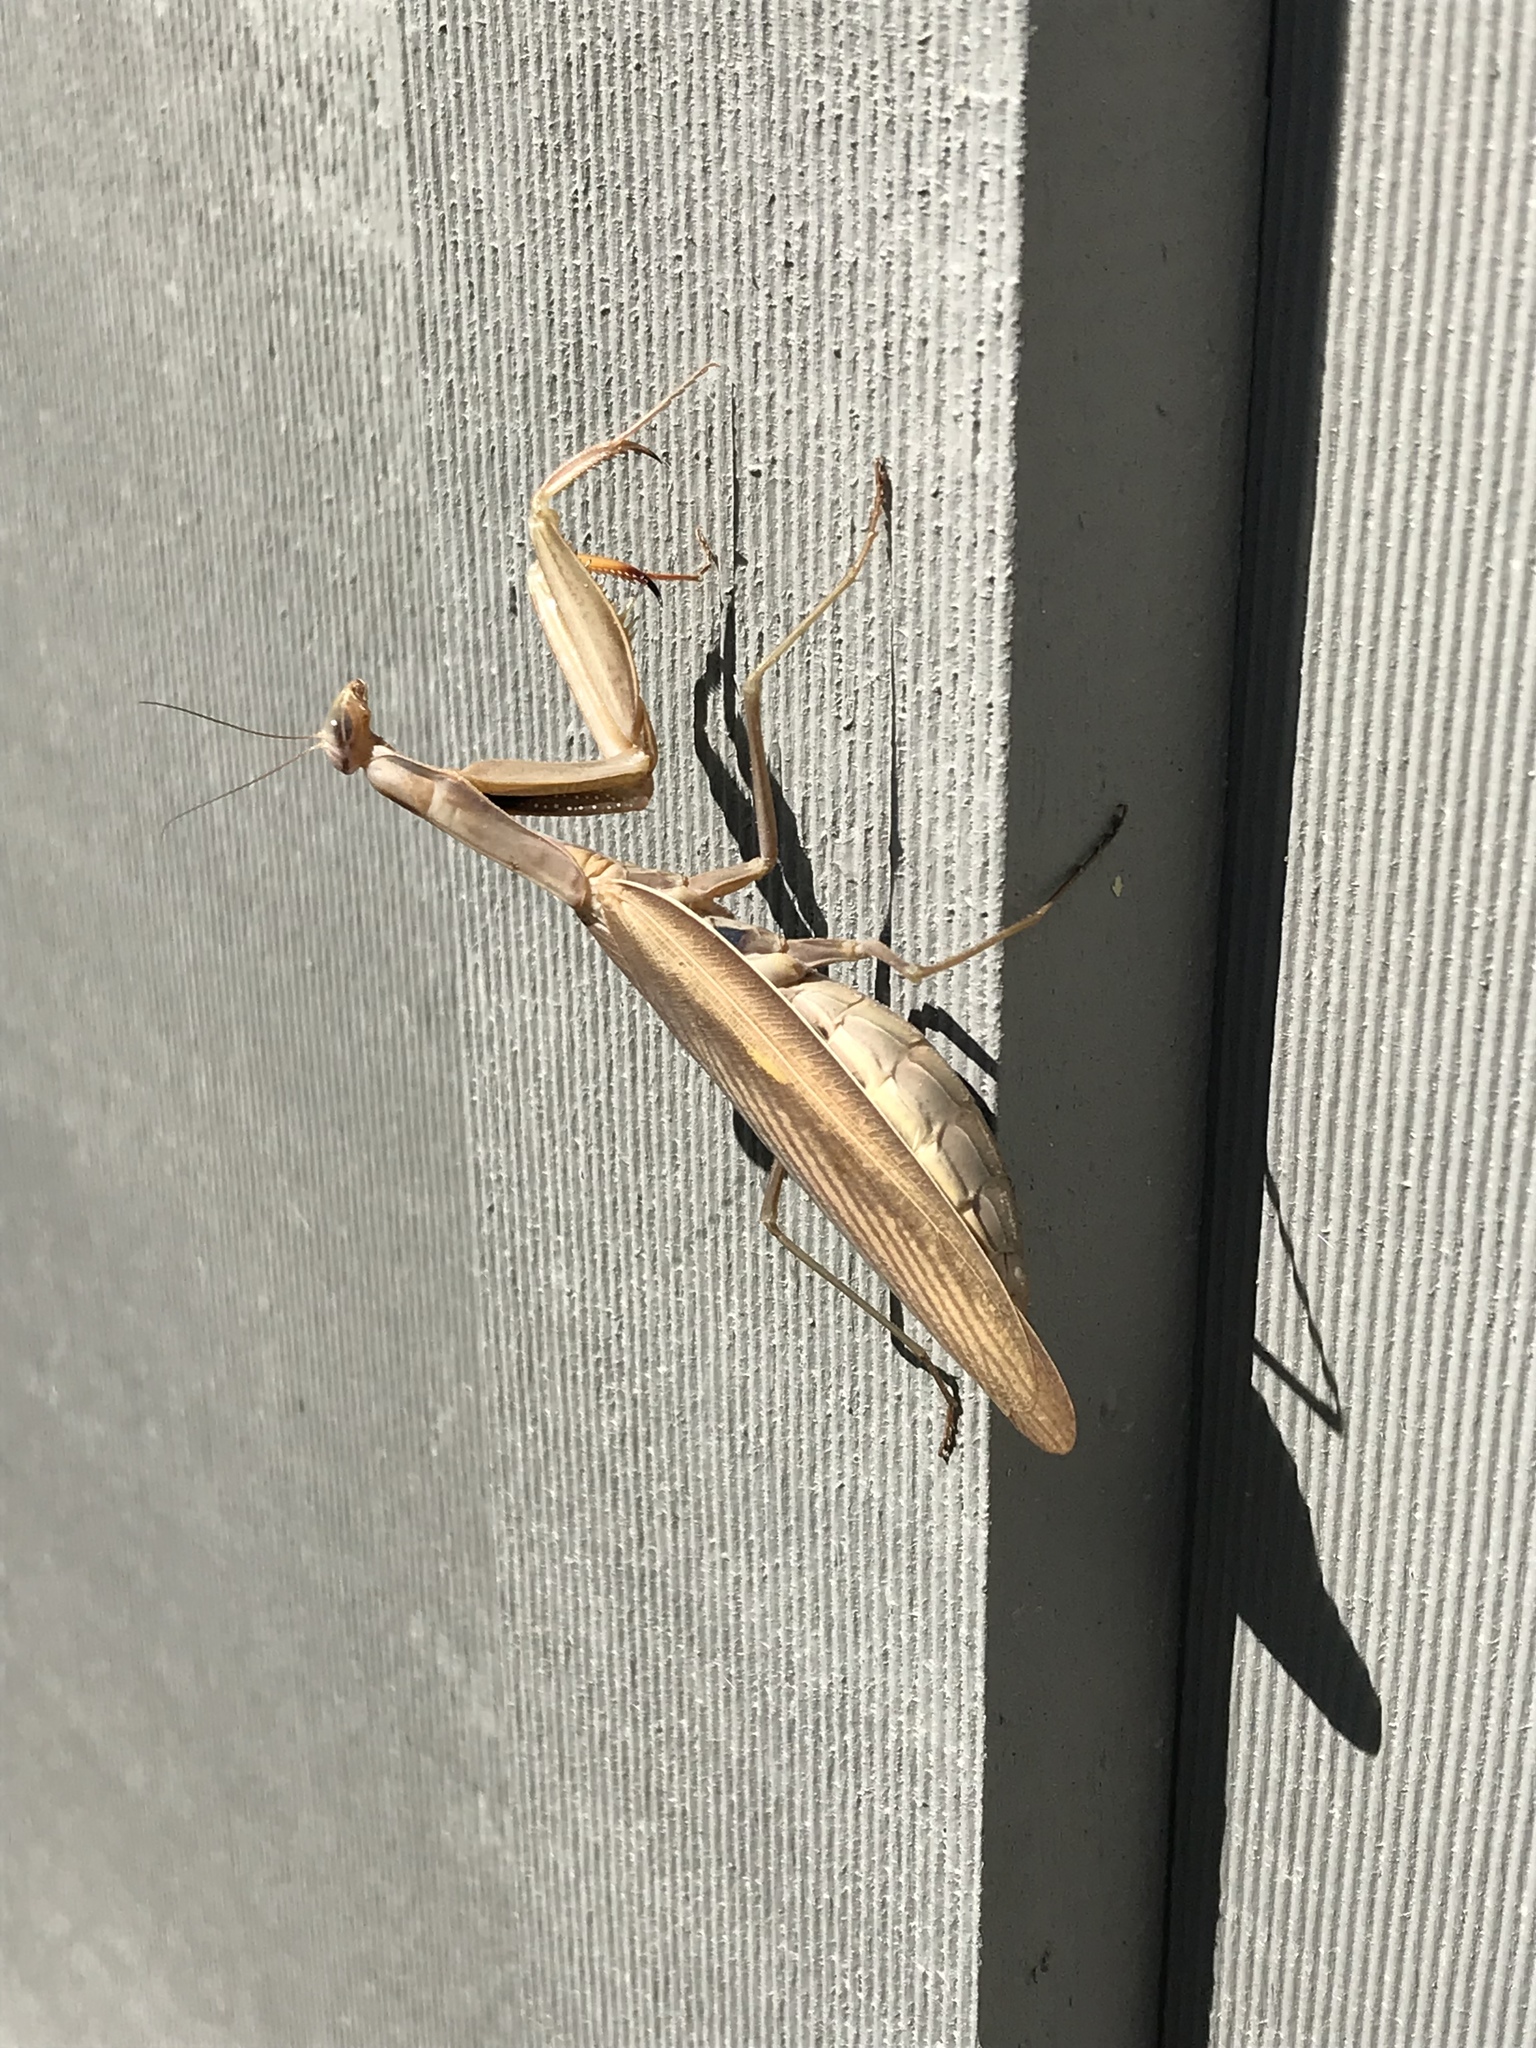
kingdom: Animalia
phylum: Arthropoda
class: Insecta
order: Mantodea
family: Mantidae
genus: Mantis
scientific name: Mantis religiosa
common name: Praying mantis
